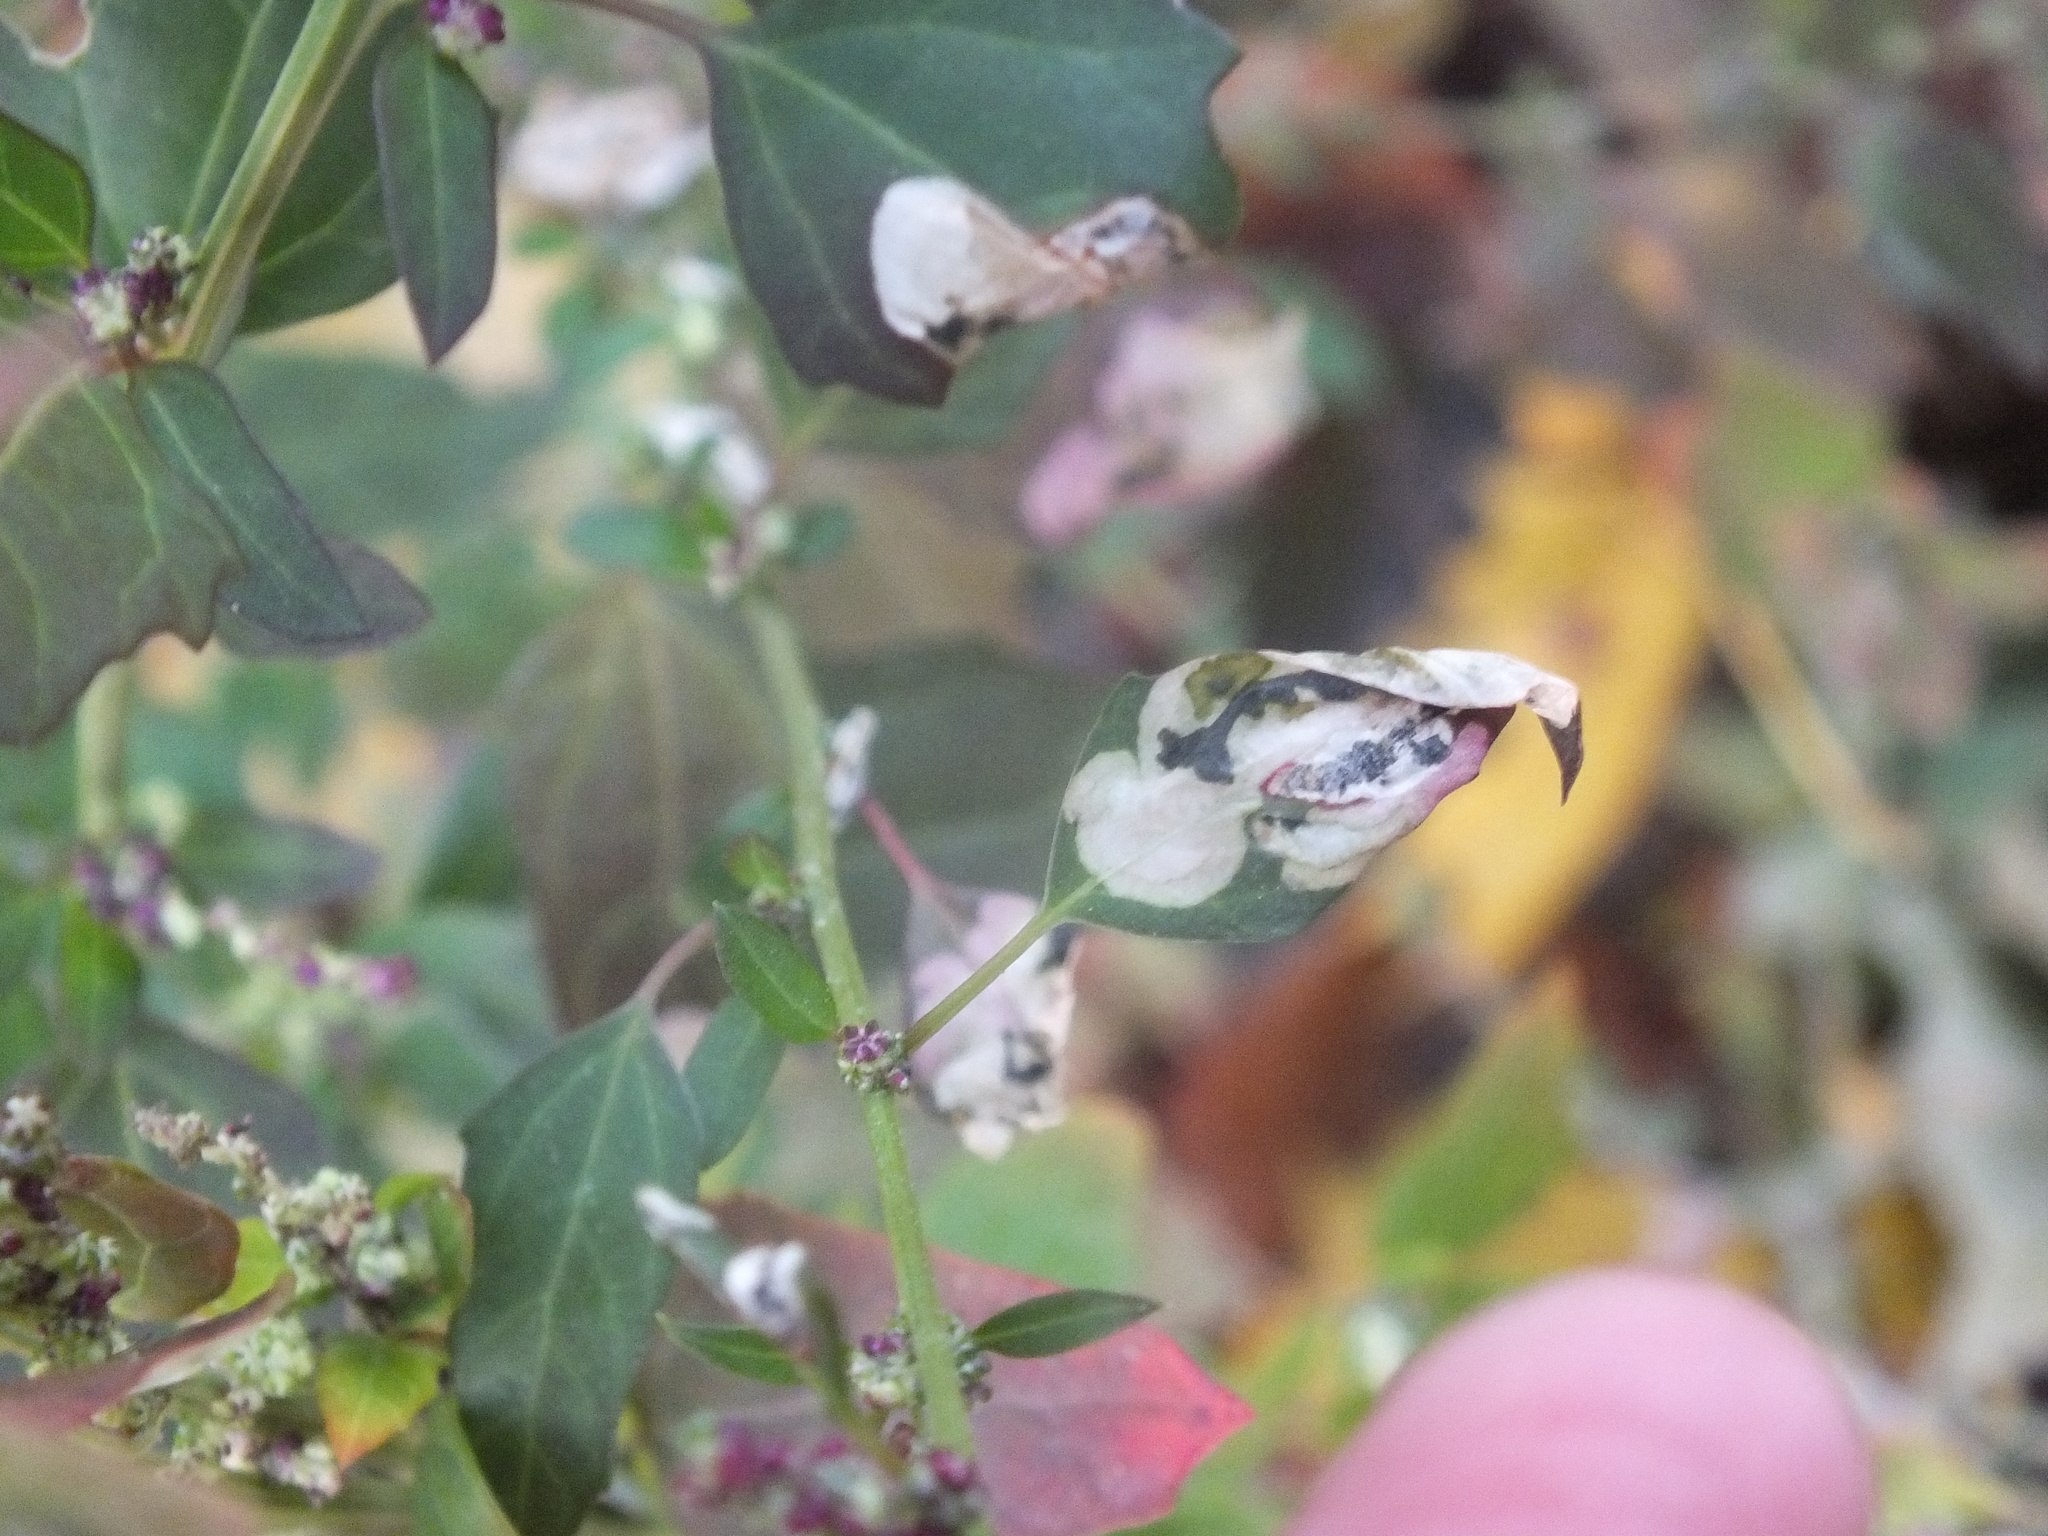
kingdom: Animalia
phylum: Arthropoda
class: Insecta
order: Lepidoptera
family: Gelechiidae
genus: Chrysoesthia
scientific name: Chrysoesthia sexguttella
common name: Moth
